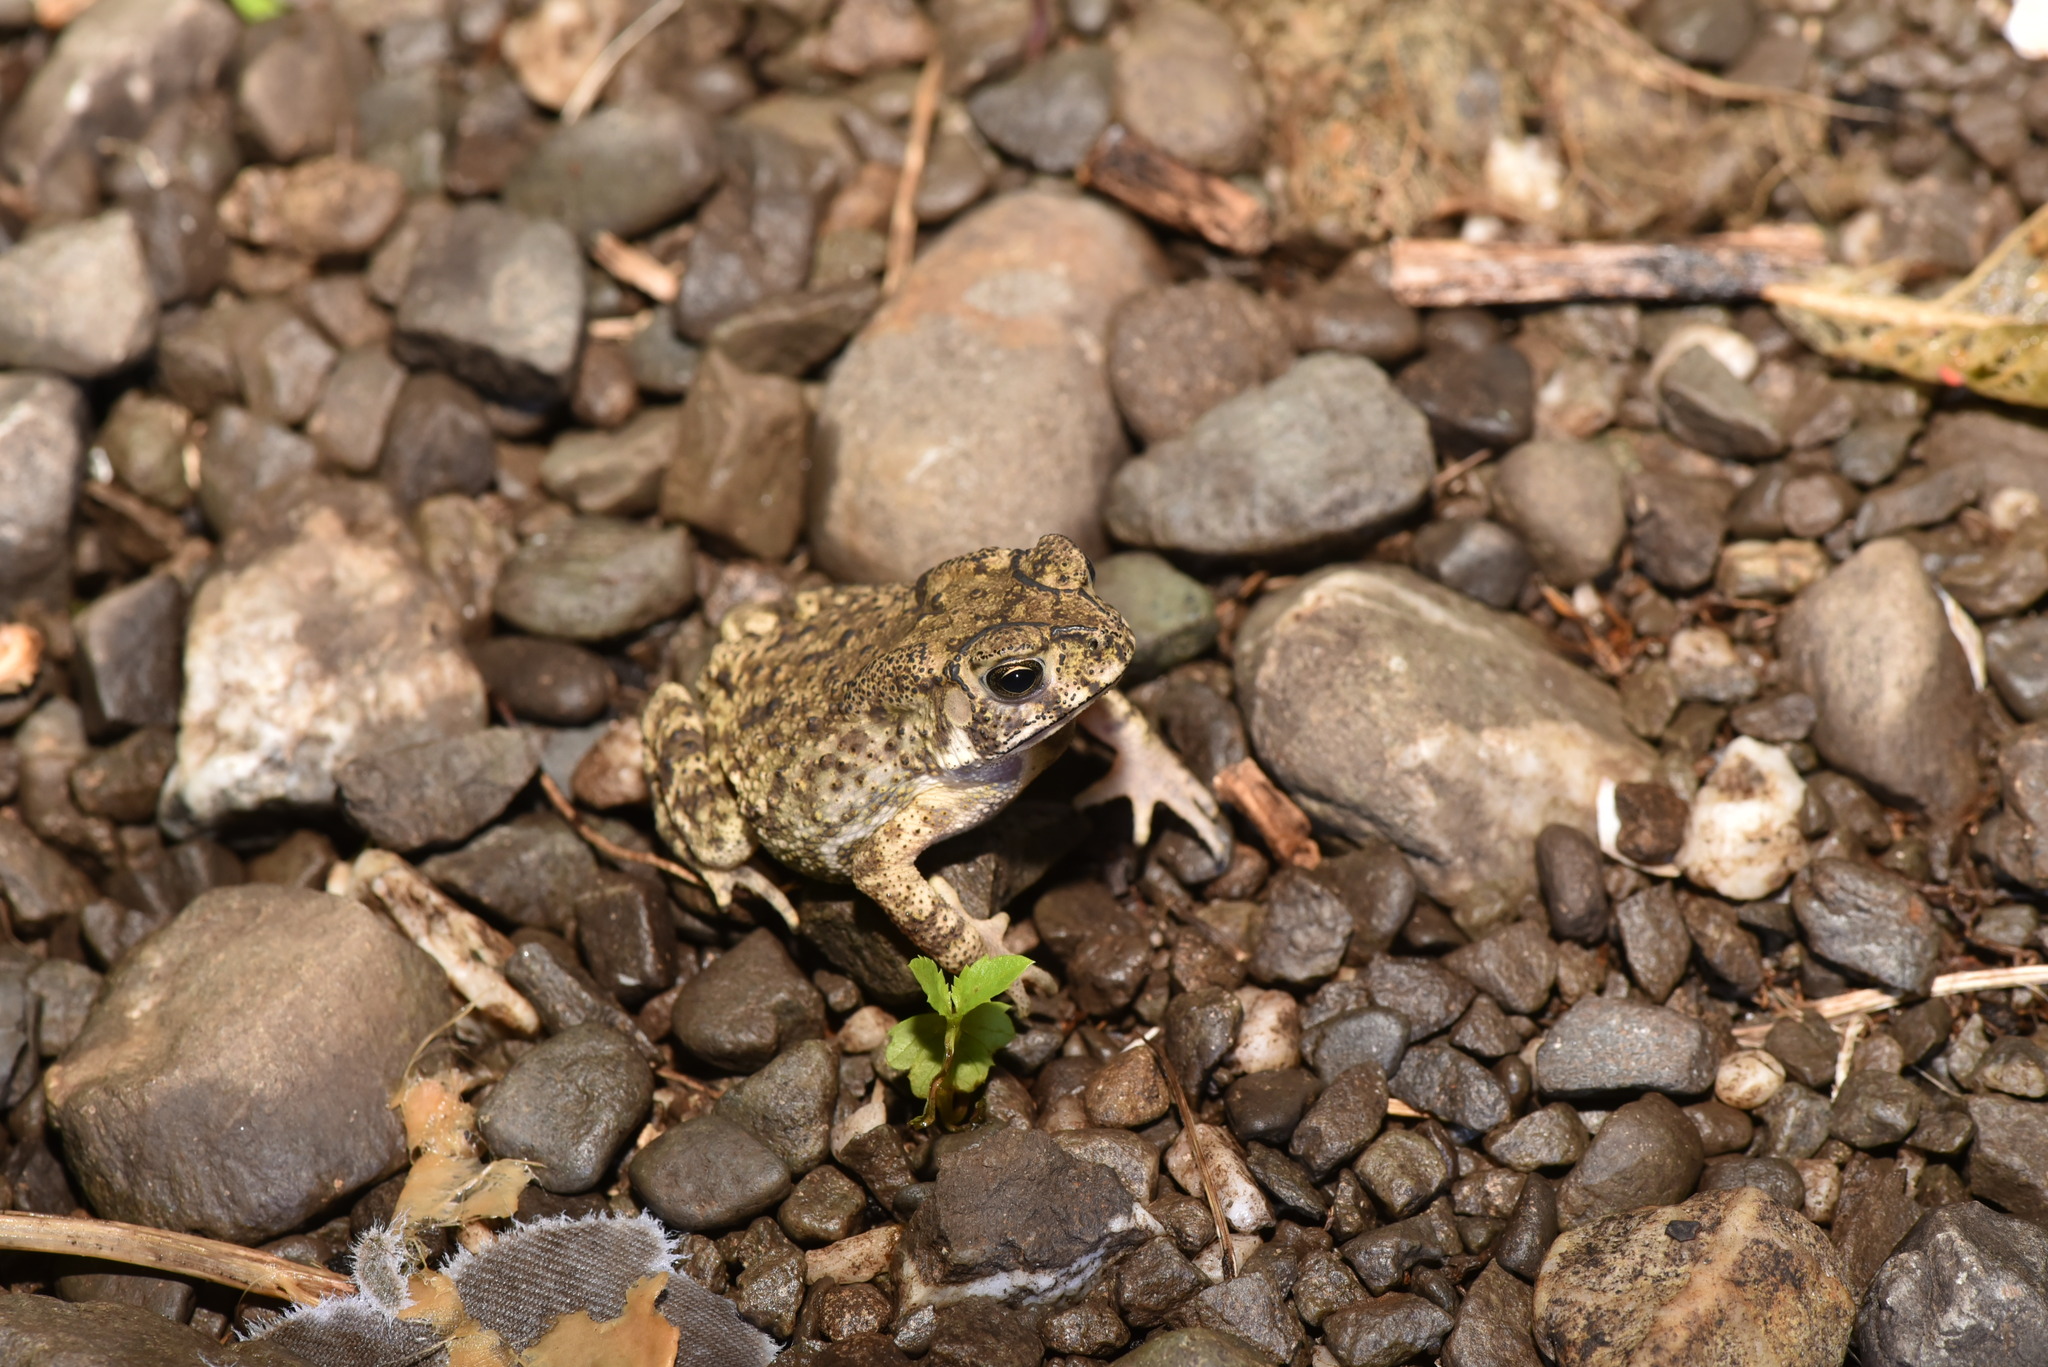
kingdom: Animalia
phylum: Chordata
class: Amphibia
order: Anura
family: Bufonidae
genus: Duttaphrynus
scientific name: Duttaphrynus melanostictus
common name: Common sunda toad
